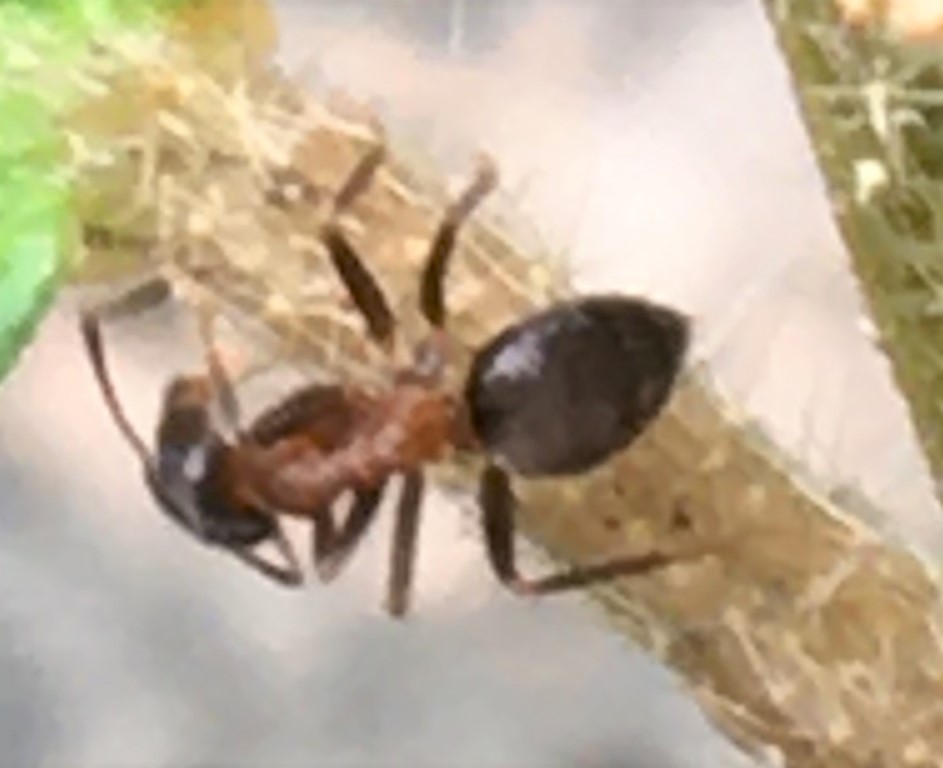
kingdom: Animalia
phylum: Arthropoda
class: Insecta
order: Hymenoptera
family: Formicidae
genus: Lasius
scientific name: Lasius emarginatus
